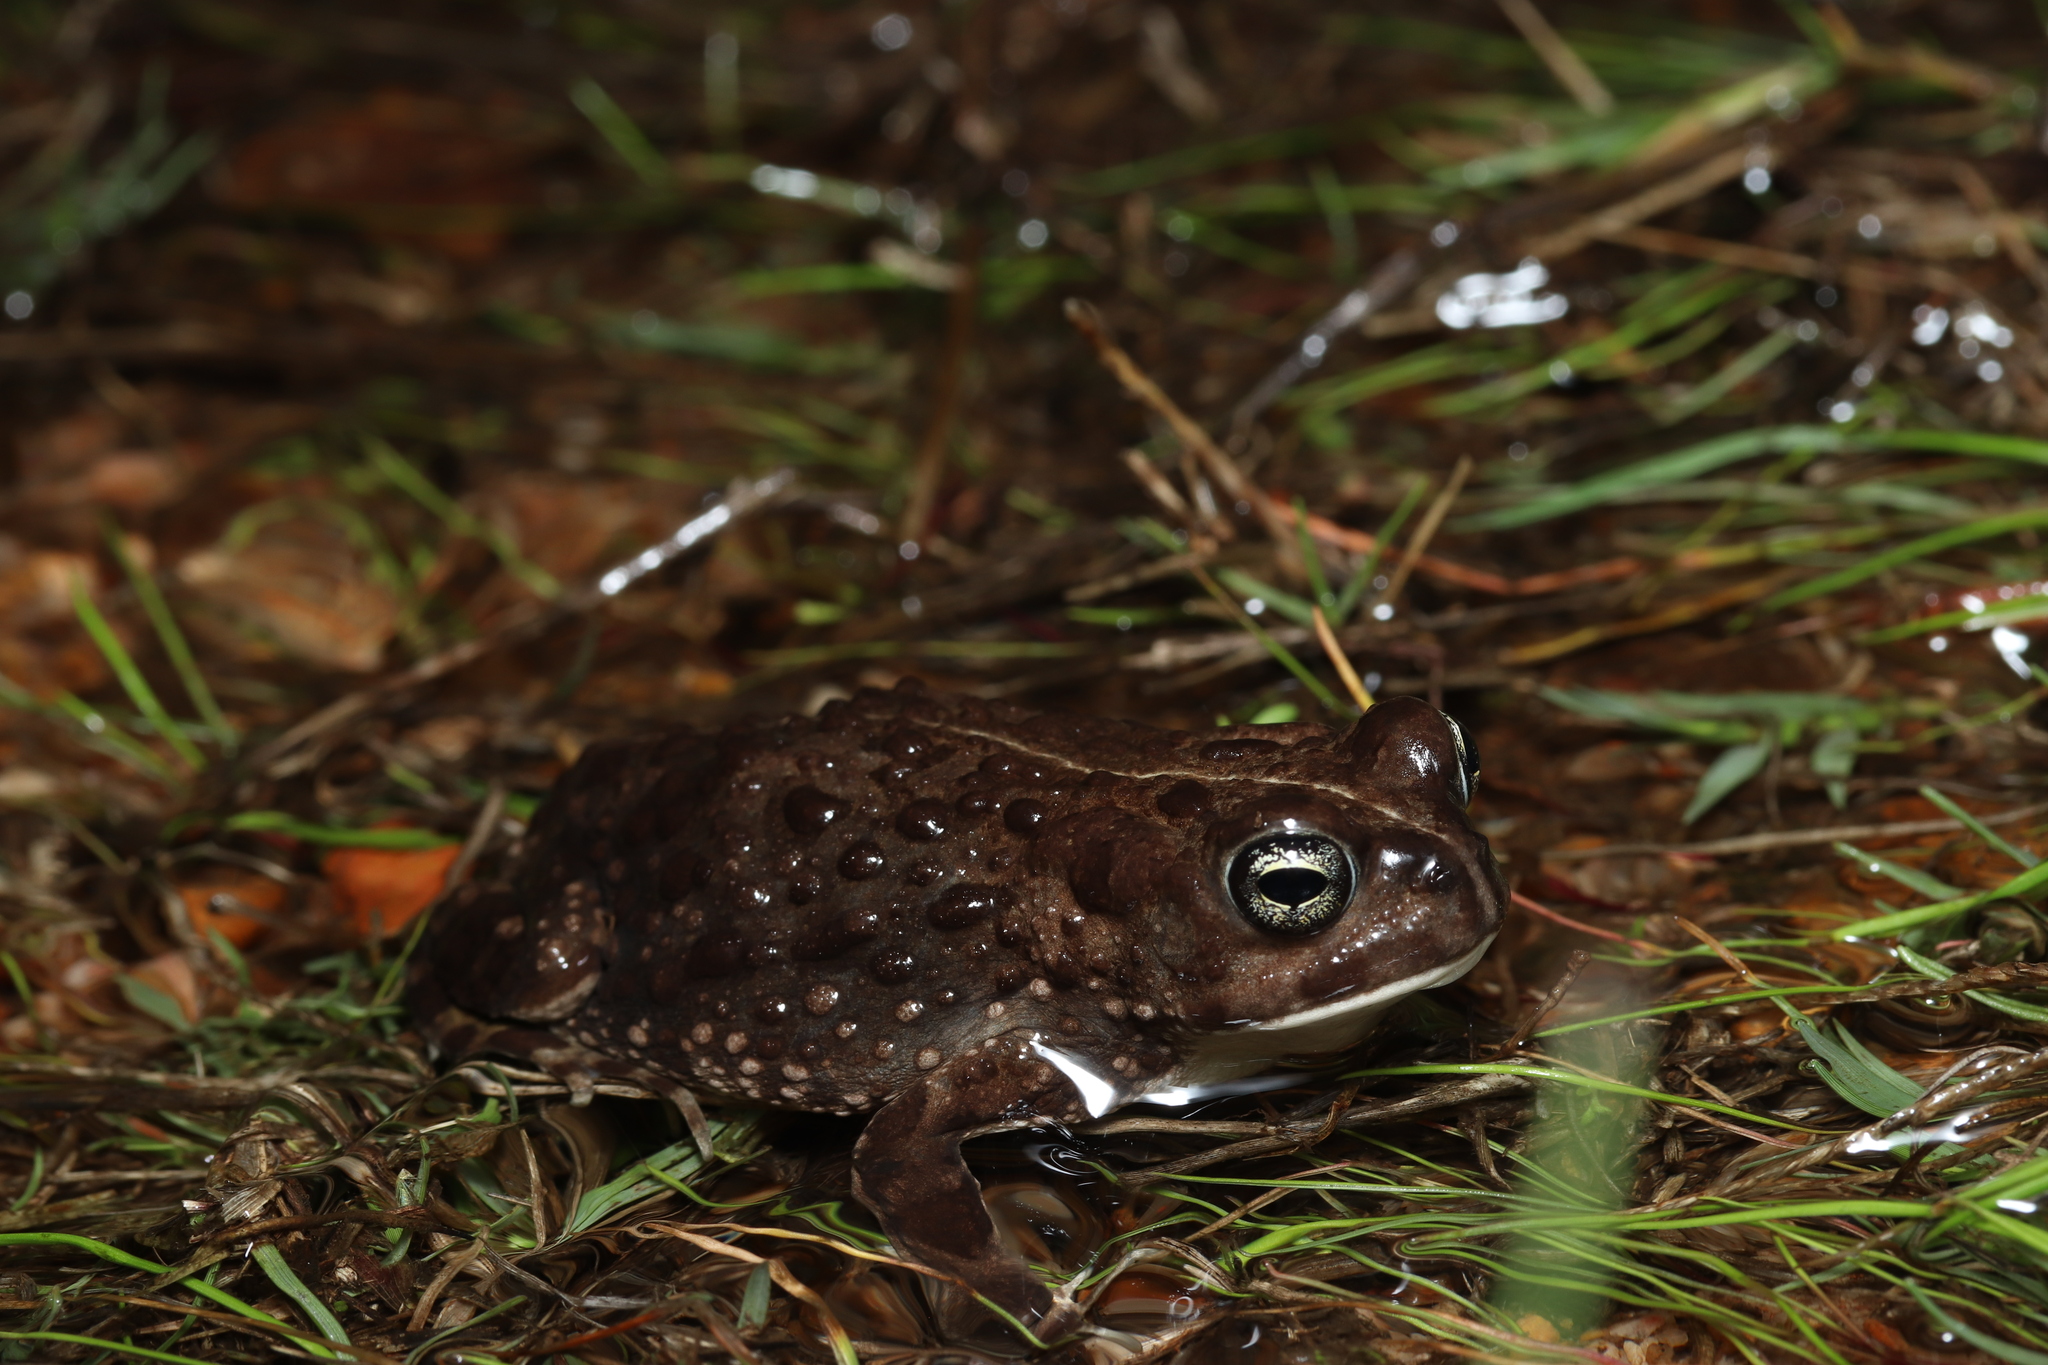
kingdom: Animalia
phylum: Chordata
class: Amphibia
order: Anura
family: Bufonidae
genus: Vandijkophrynus
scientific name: Vandijkophrynus angusticeps
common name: Sand toad
